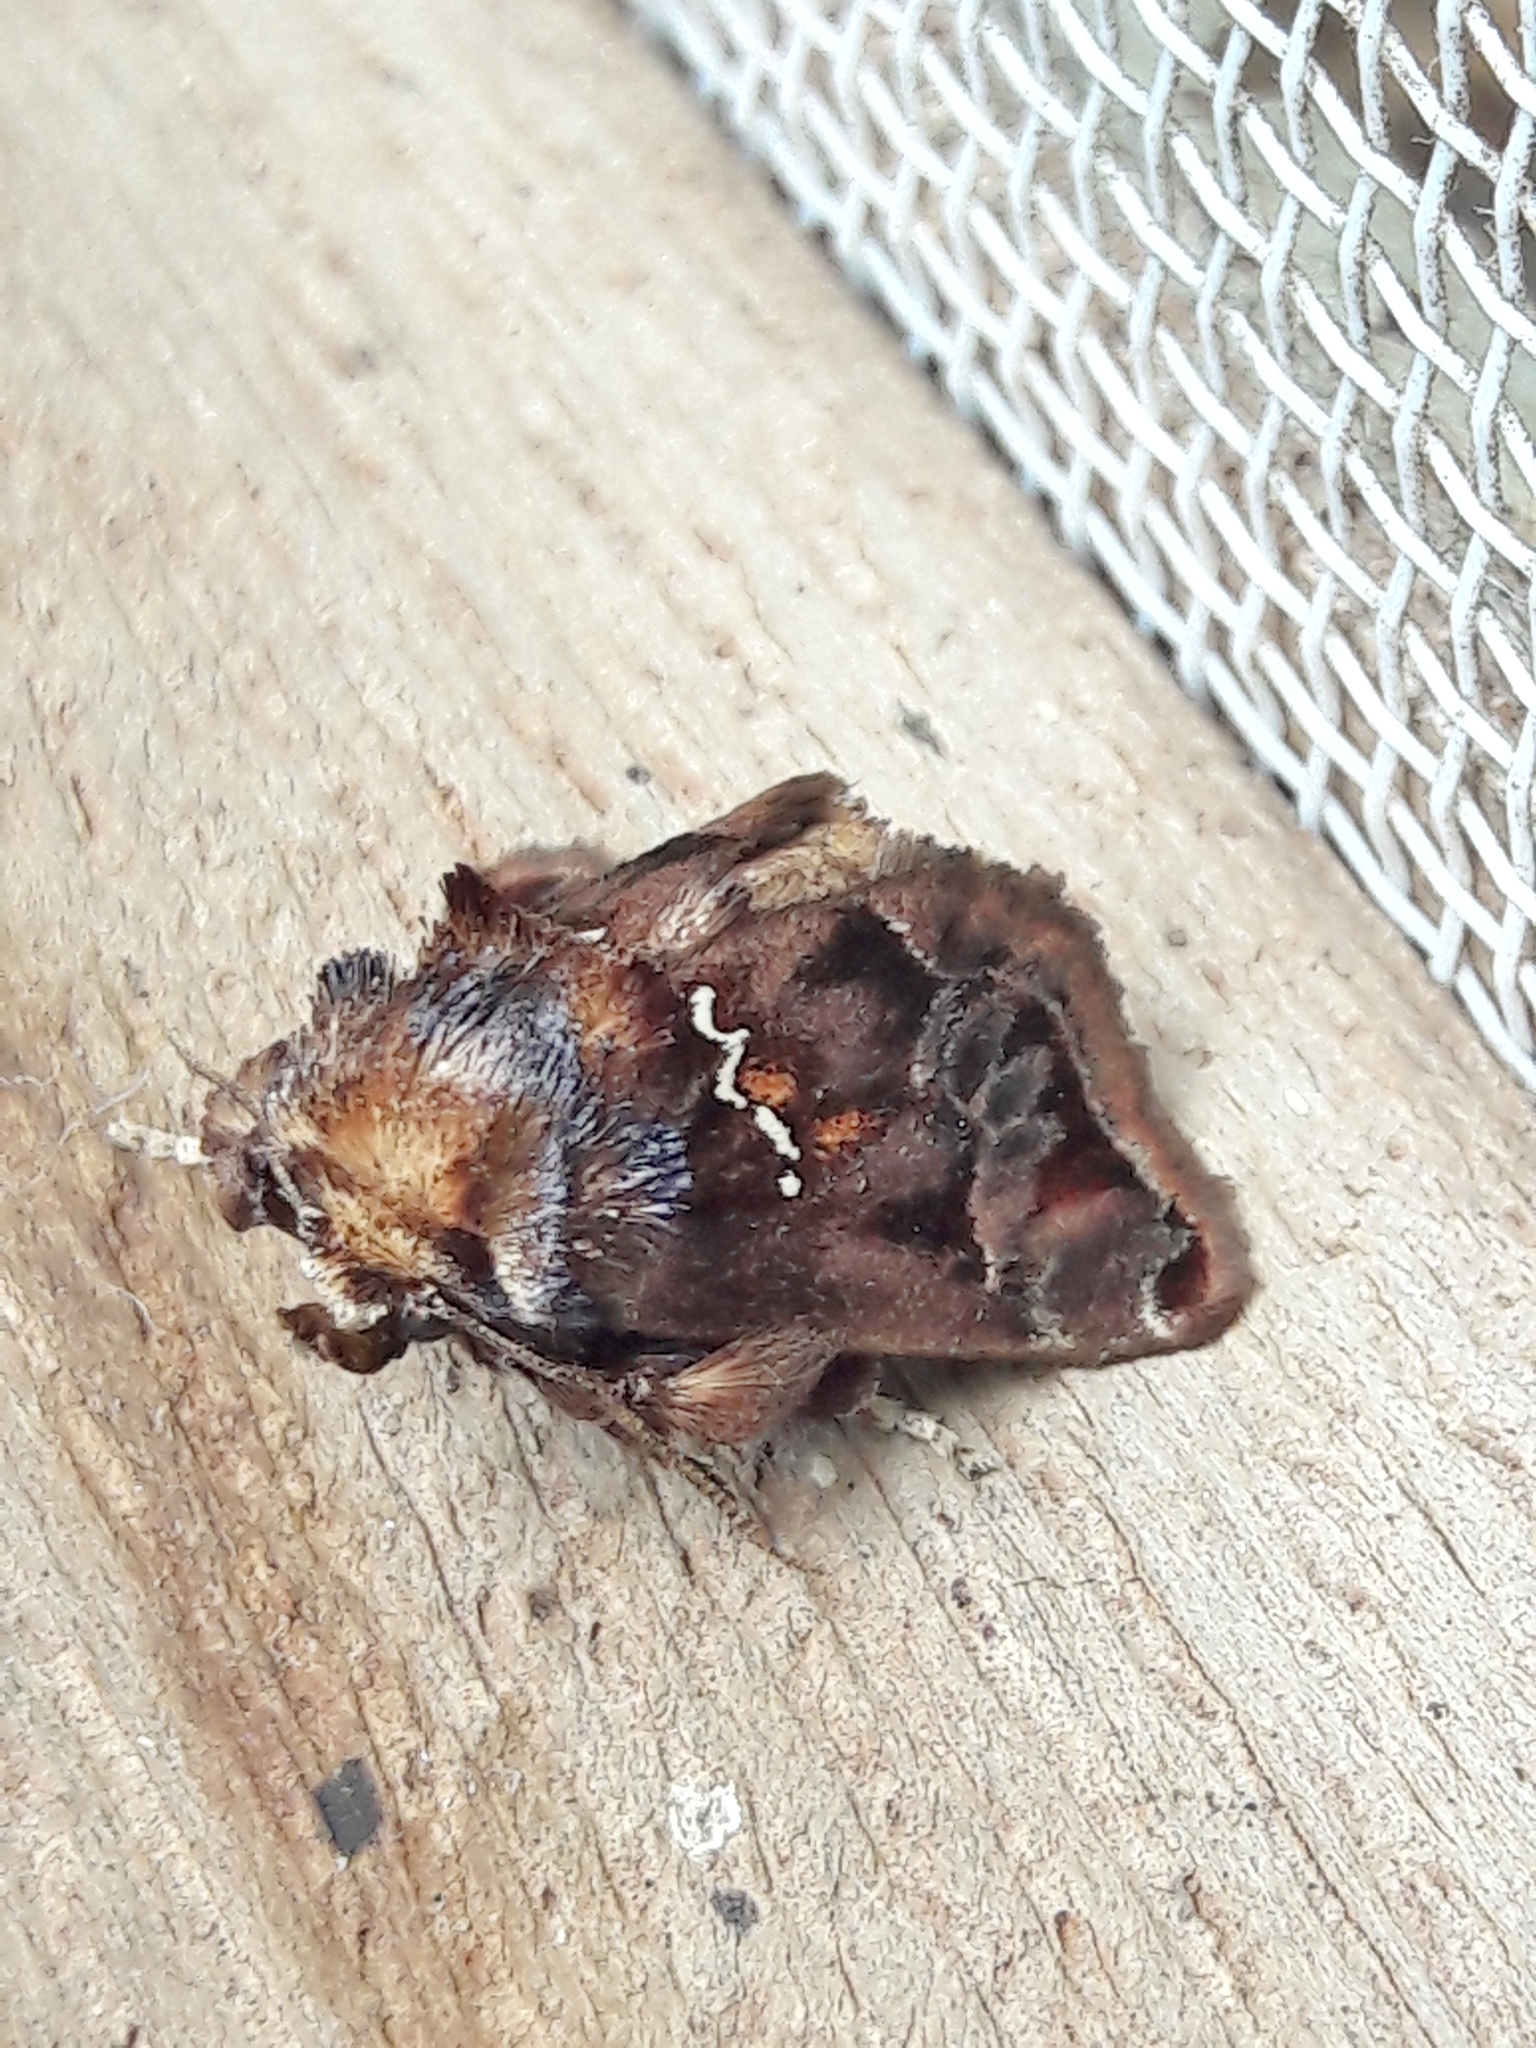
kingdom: Animalia
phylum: Arthropoda
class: Insecta
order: Lepidoptera
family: Limacodidae
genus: Semyra
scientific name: Semyra
